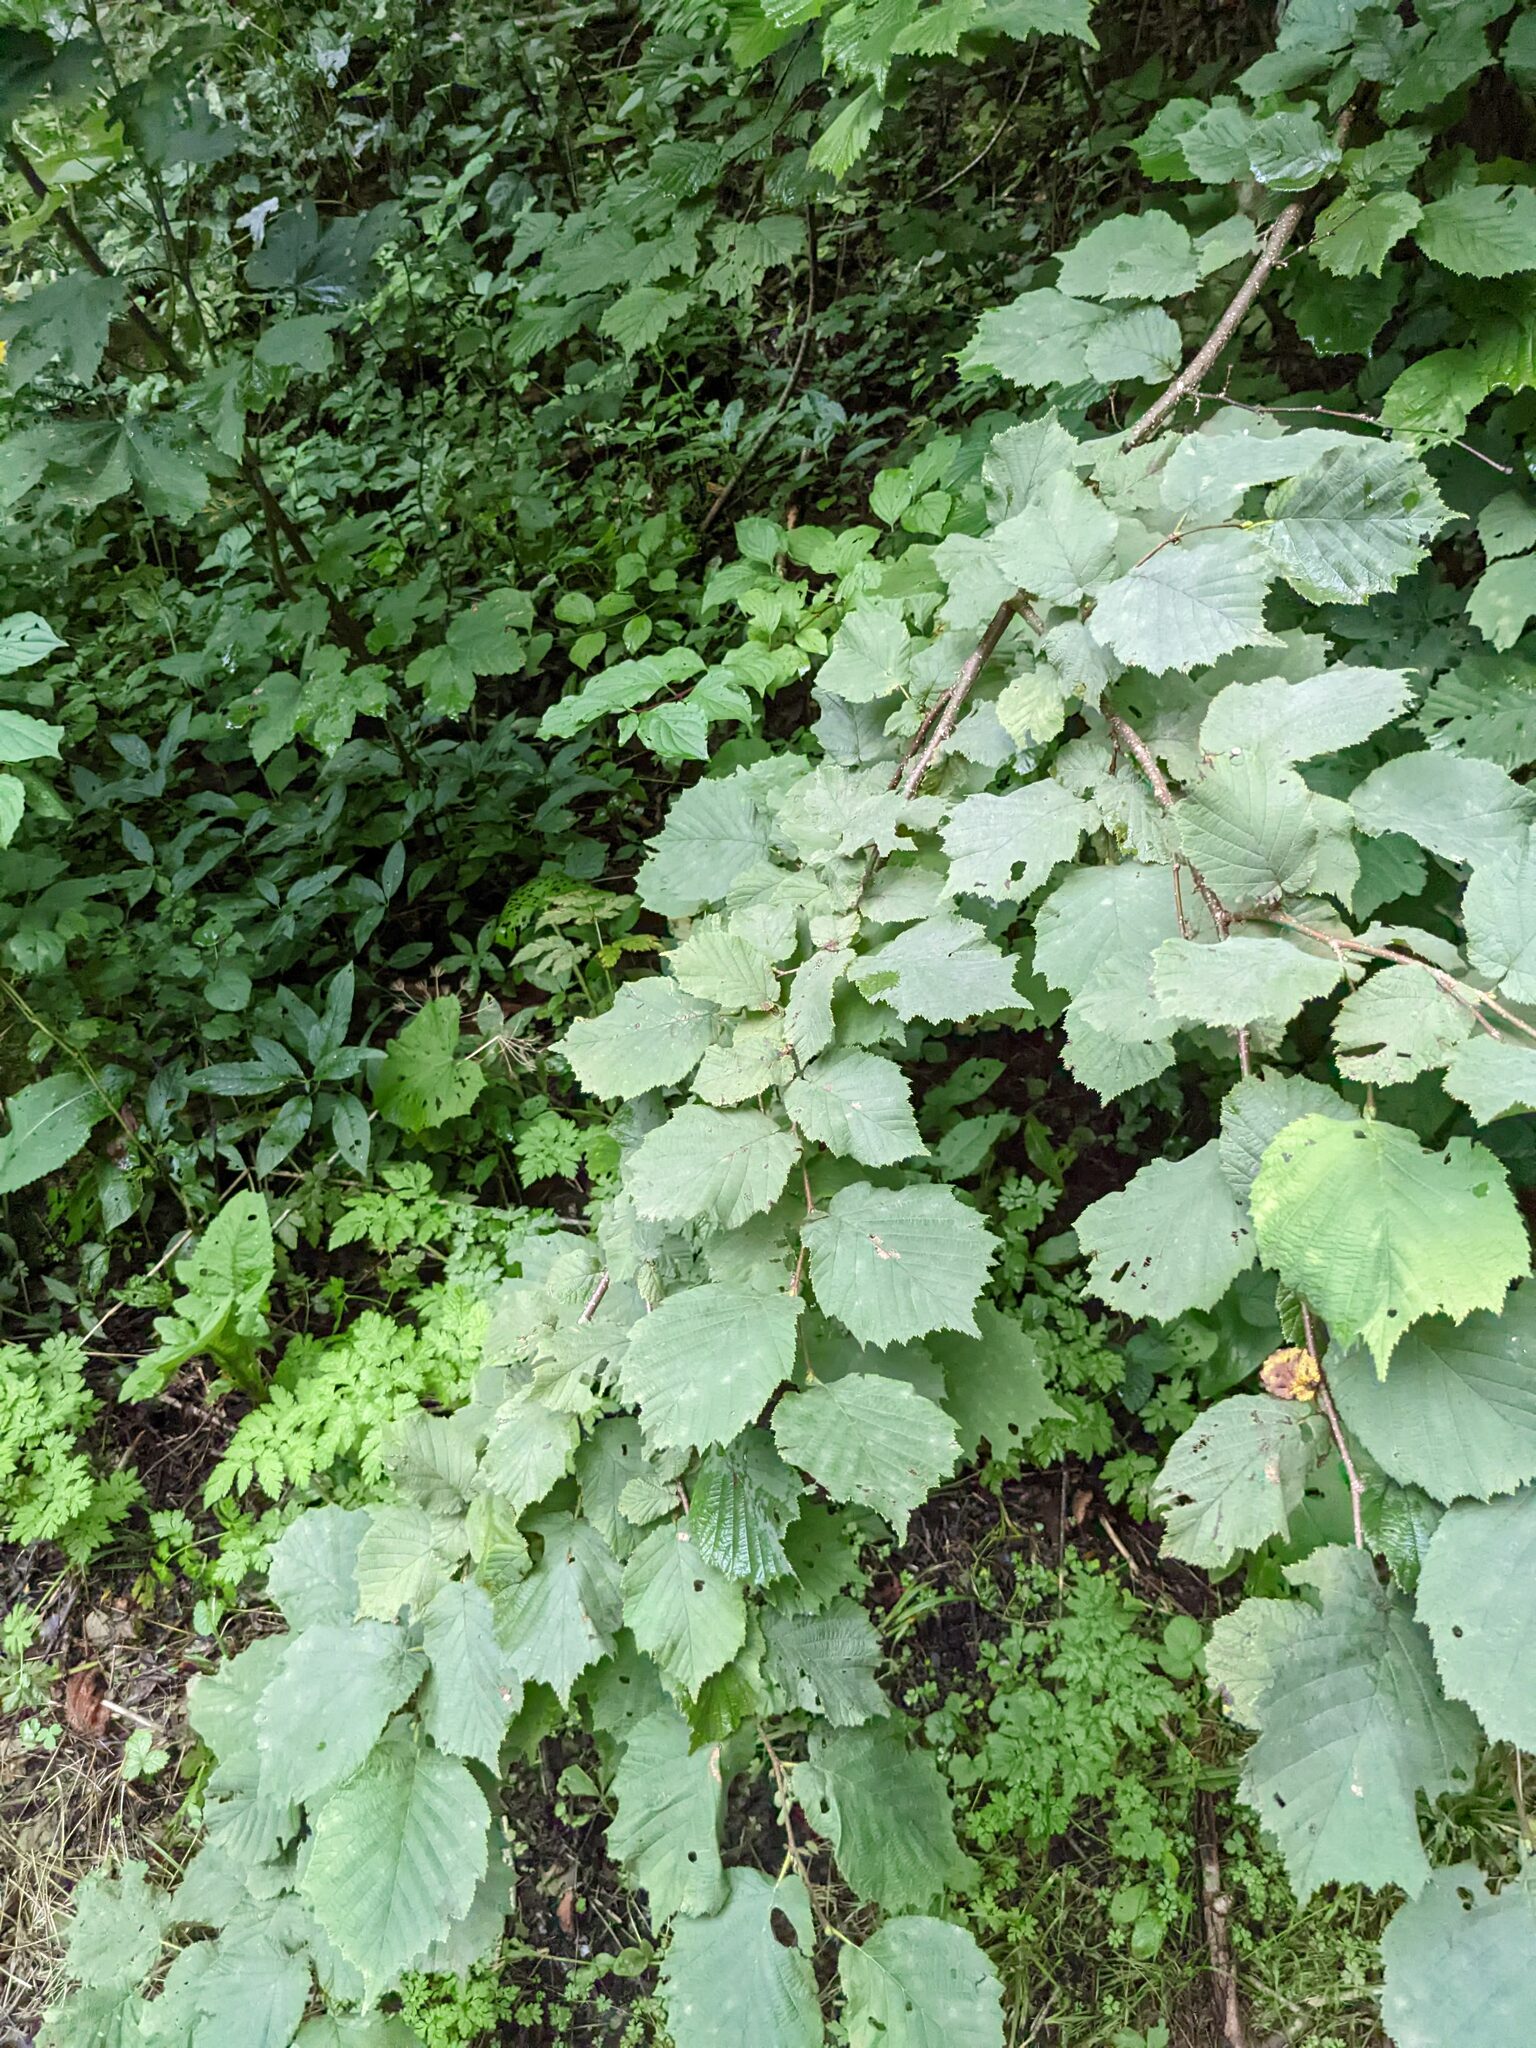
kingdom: Plantae
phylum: Tracheophyta
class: Magnoliopsida
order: Fagales
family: Betulaceae
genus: Corylus
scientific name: Corylus avellana
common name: European hazel
